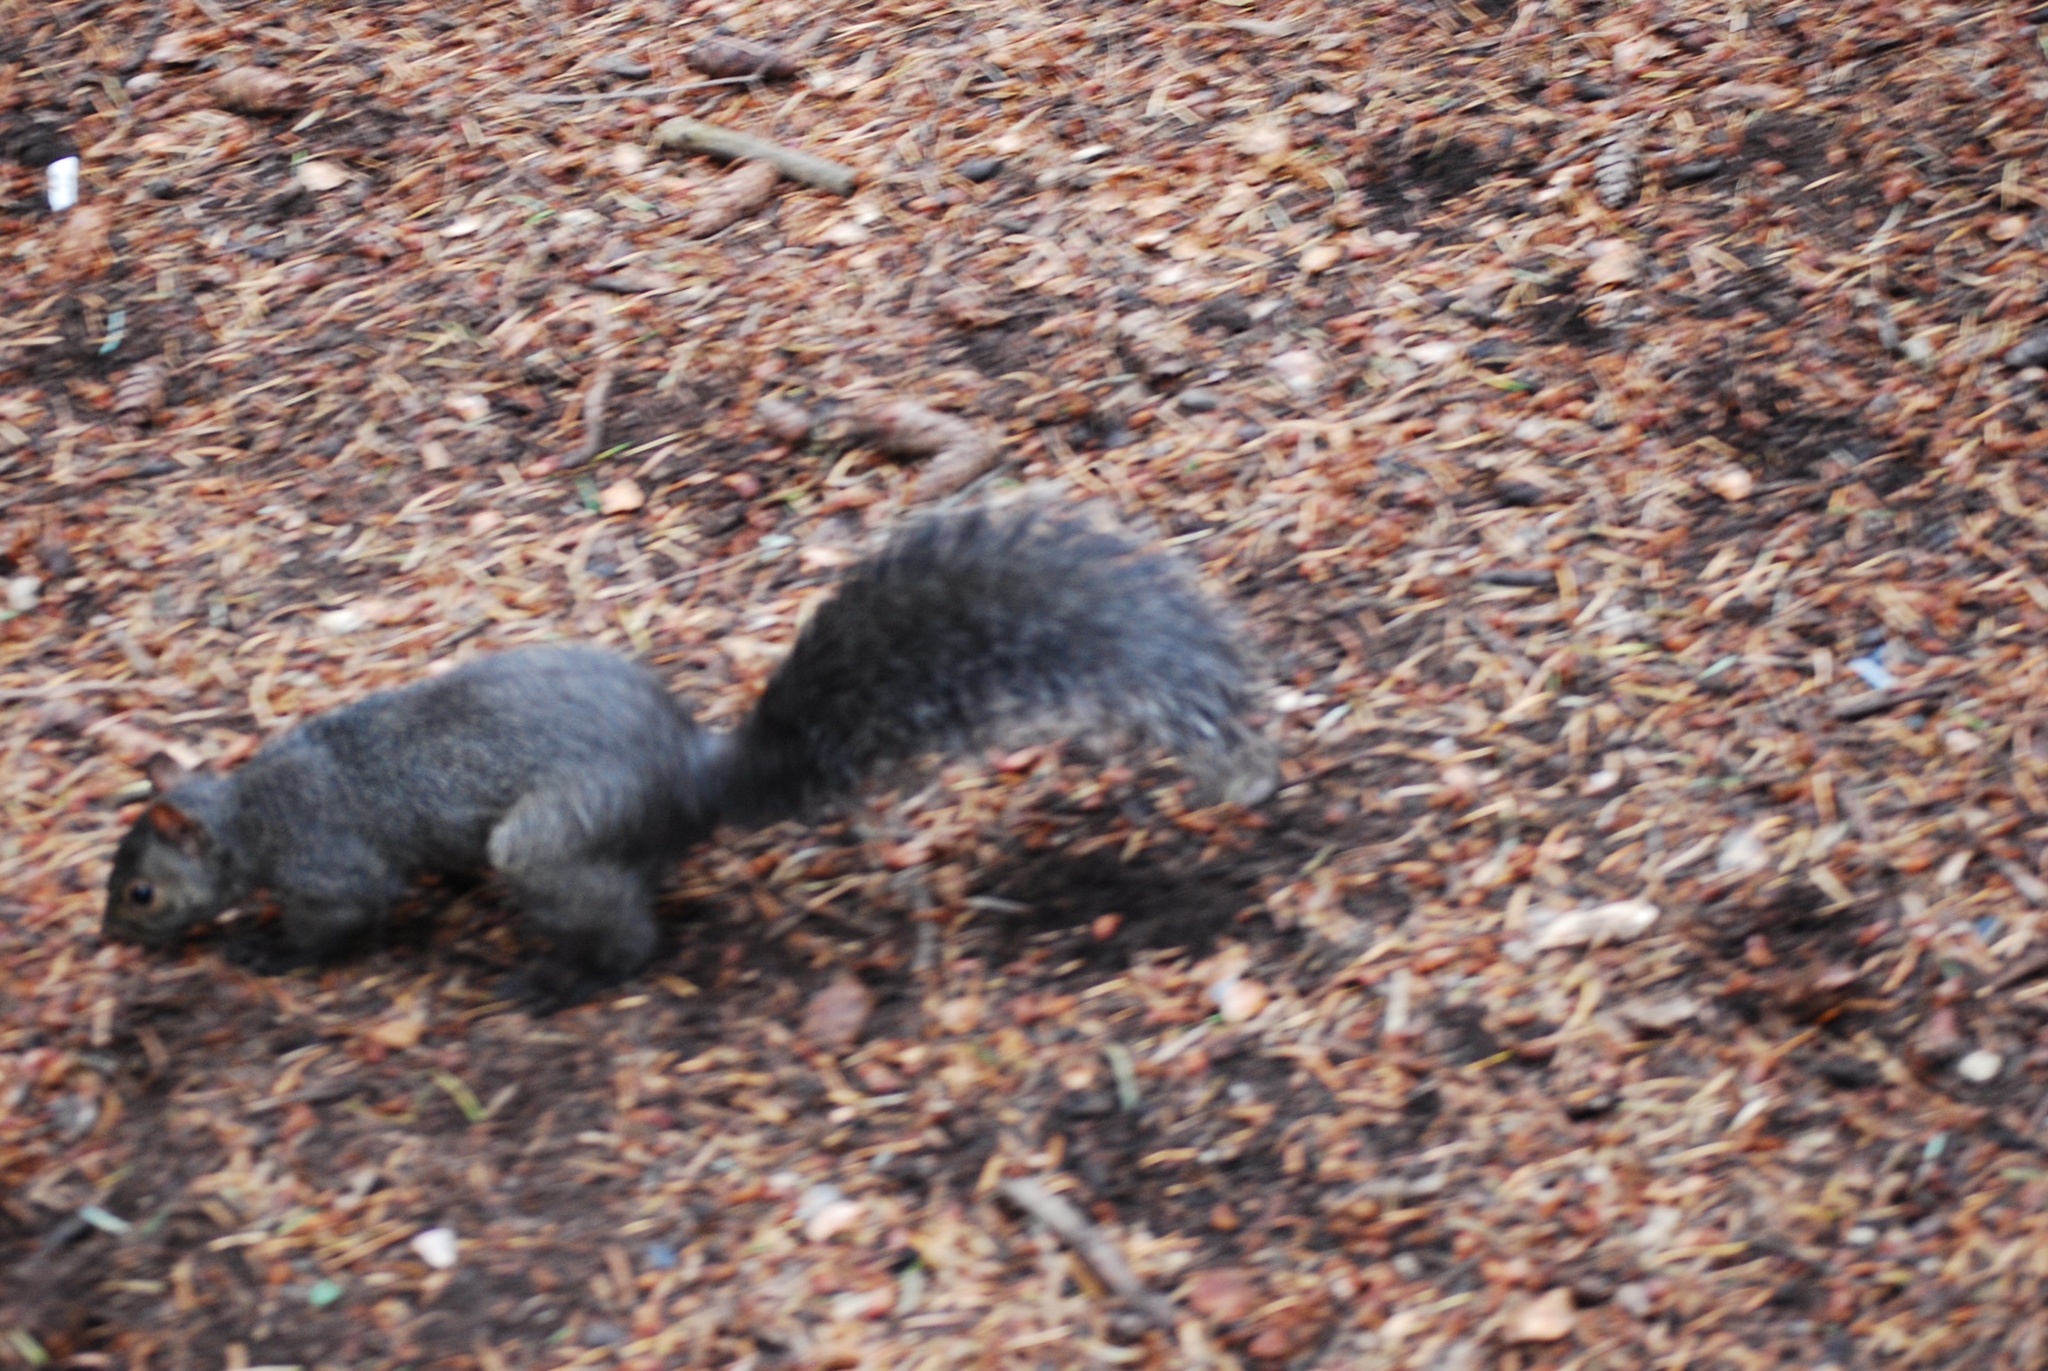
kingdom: Animalia
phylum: Chordata
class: Mammalia
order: Rodentia
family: Sciuridae
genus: Sciurus
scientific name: Sciurus carolinensis
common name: Eastern gray squirrel
